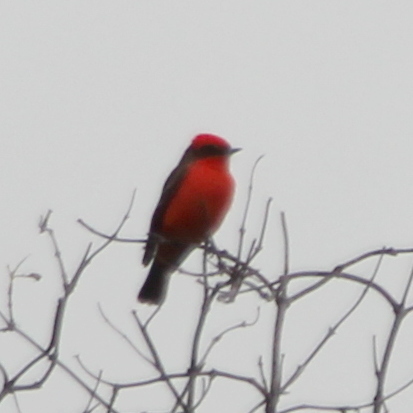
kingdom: Animalia
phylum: Chordata
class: Aves
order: Passeriformes
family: Tyrannidae
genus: Pyrocephalus
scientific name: Pyrocephalus rubinus
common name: Vermilion flycatcher
